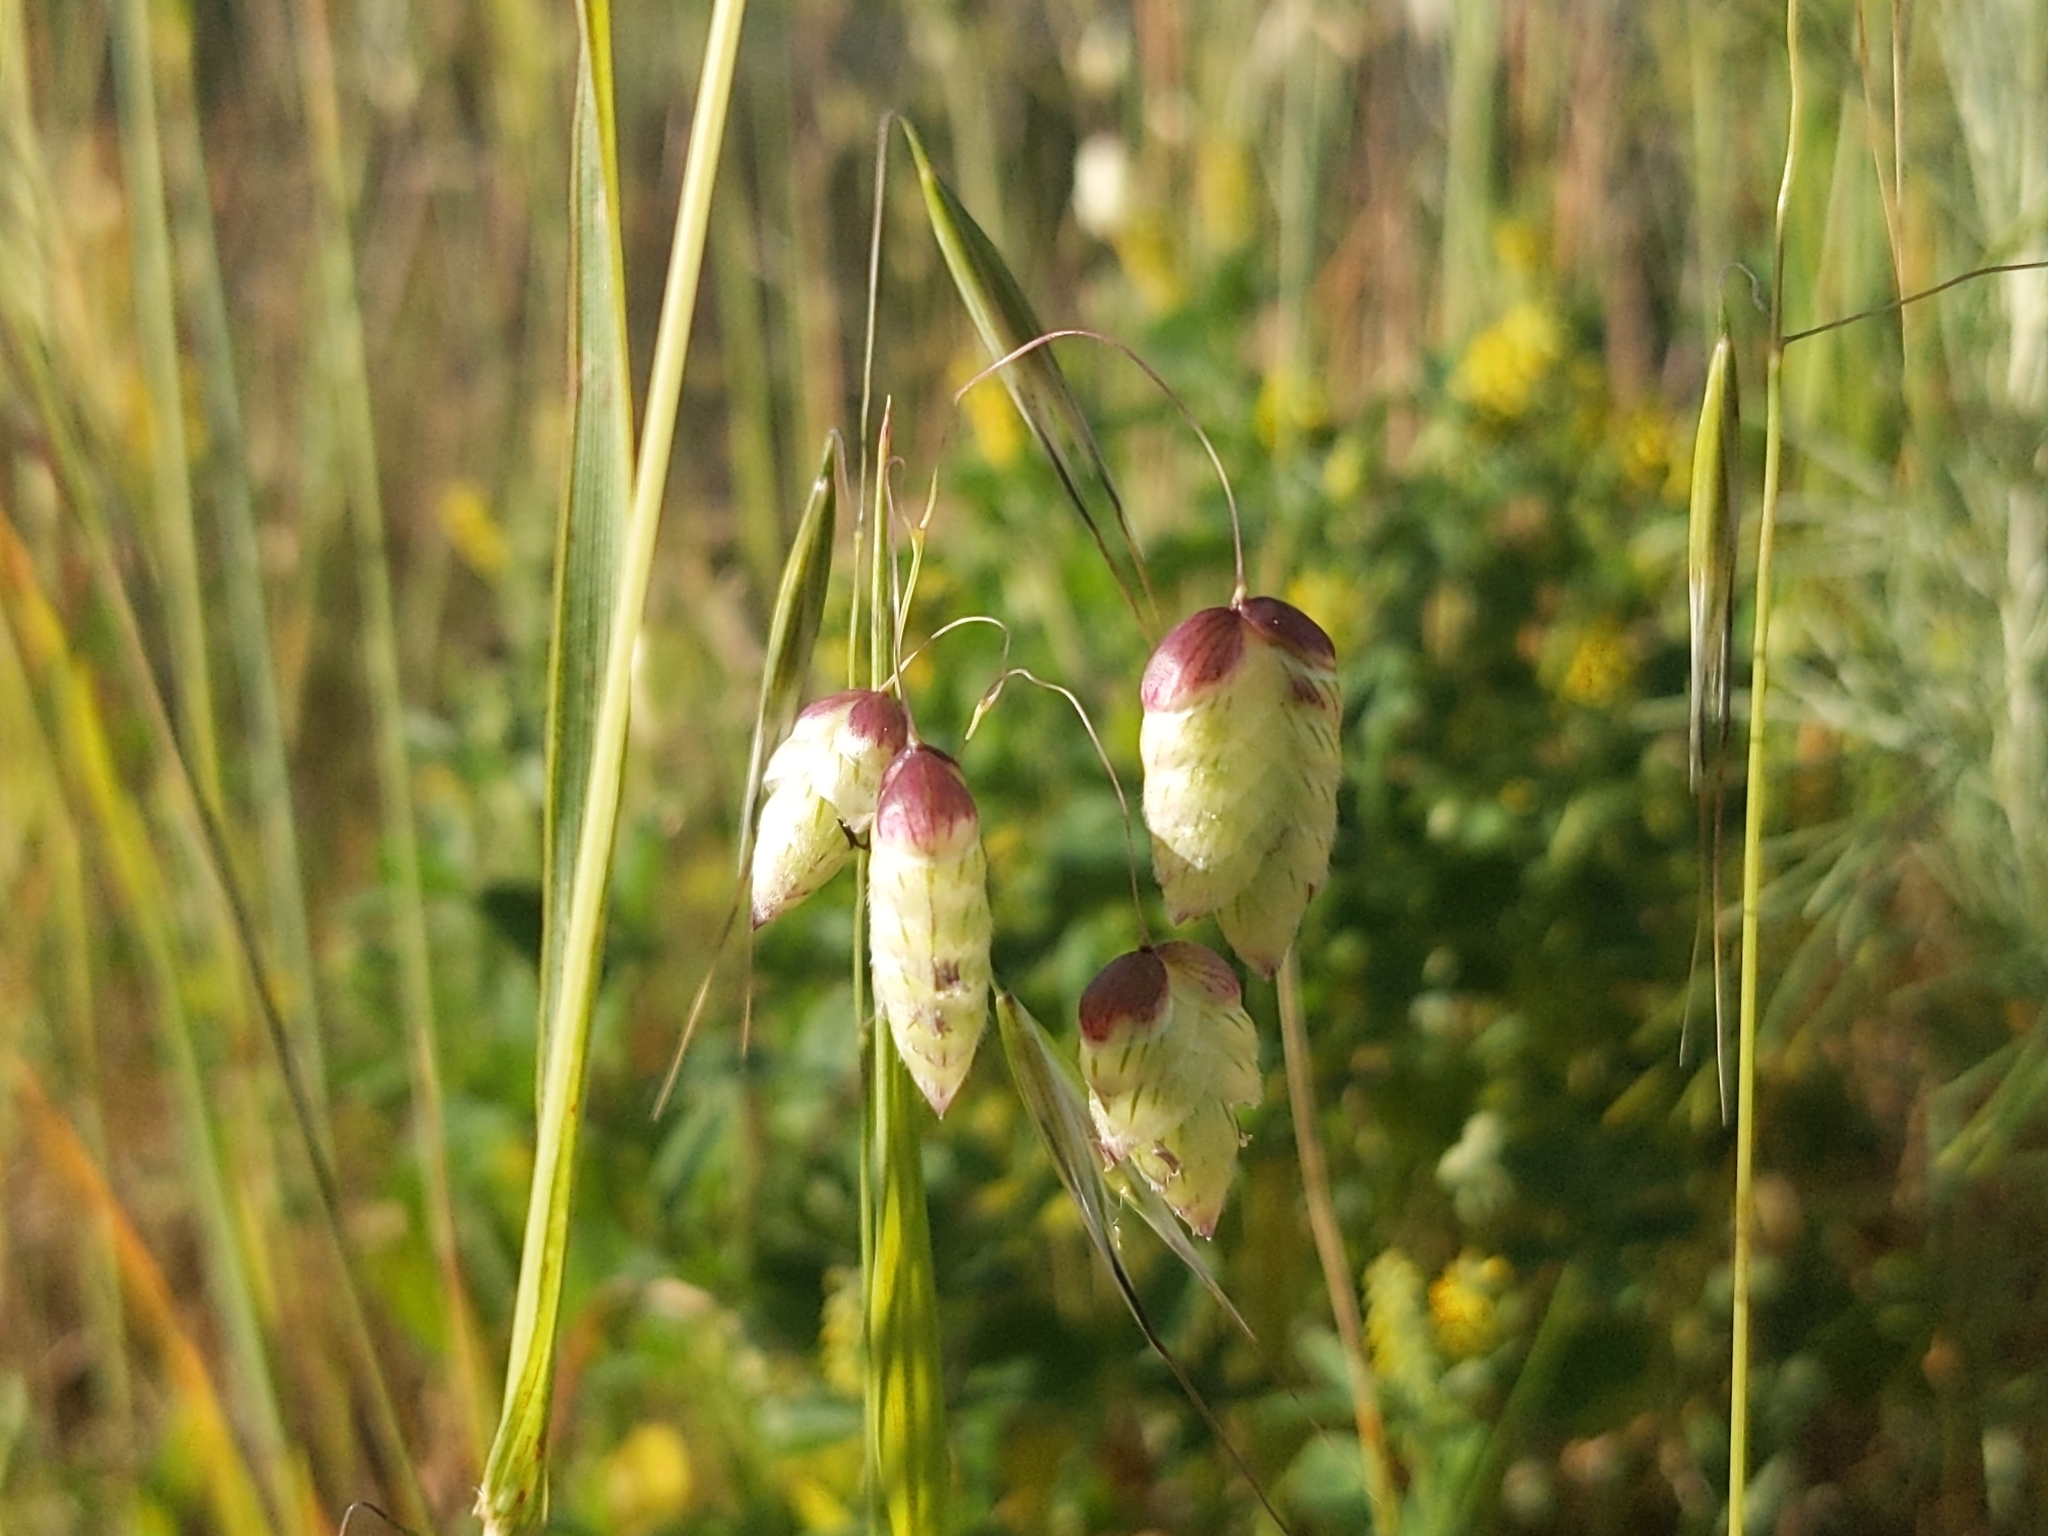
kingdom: Plantae
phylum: Tracheophyta
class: Liliopsida
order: Poales
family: Poaceae
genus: Briza
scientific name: Briza maxima
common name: Big quakinggrass
